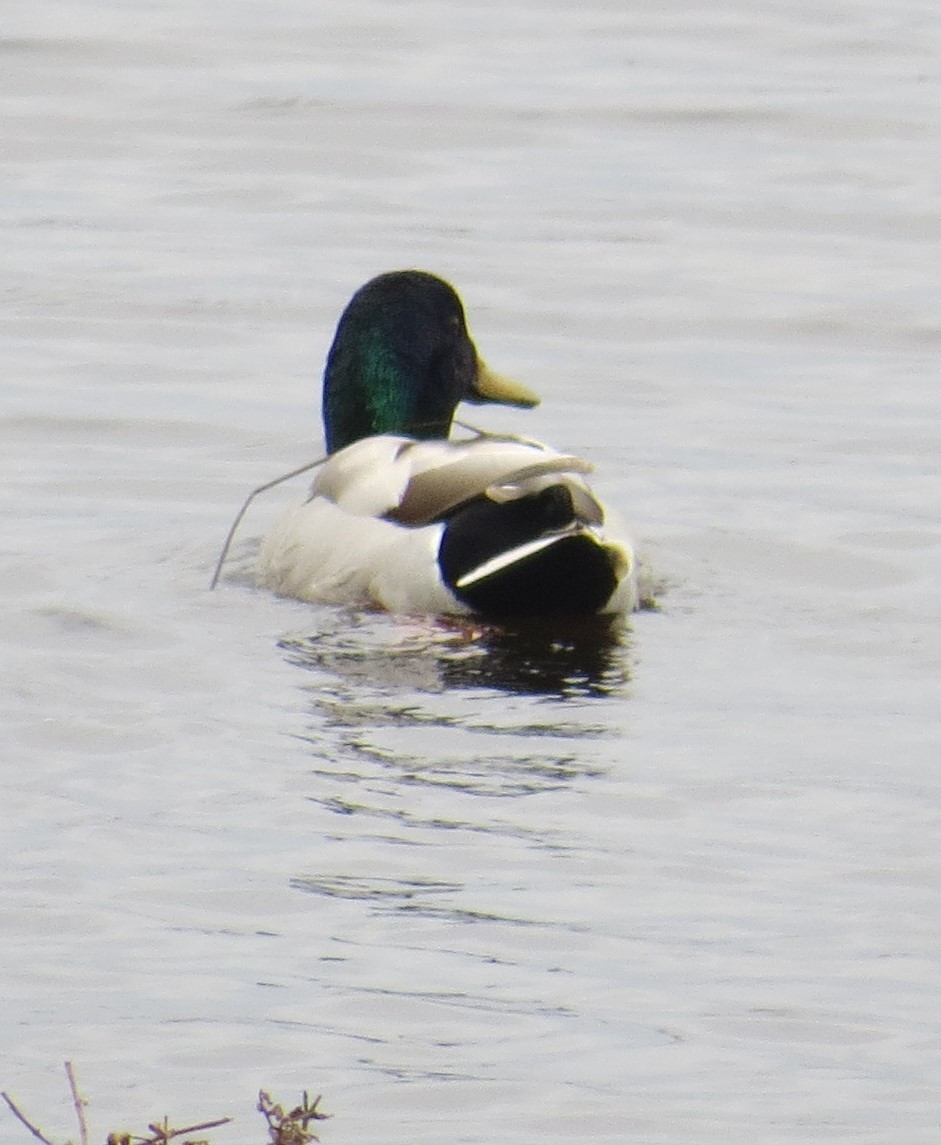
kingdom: Animalia
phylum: Chordata
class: Aves
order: Anseriformes
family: Anatidae
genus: Anas
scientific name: Anas platyrhynchos
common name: Mallard
